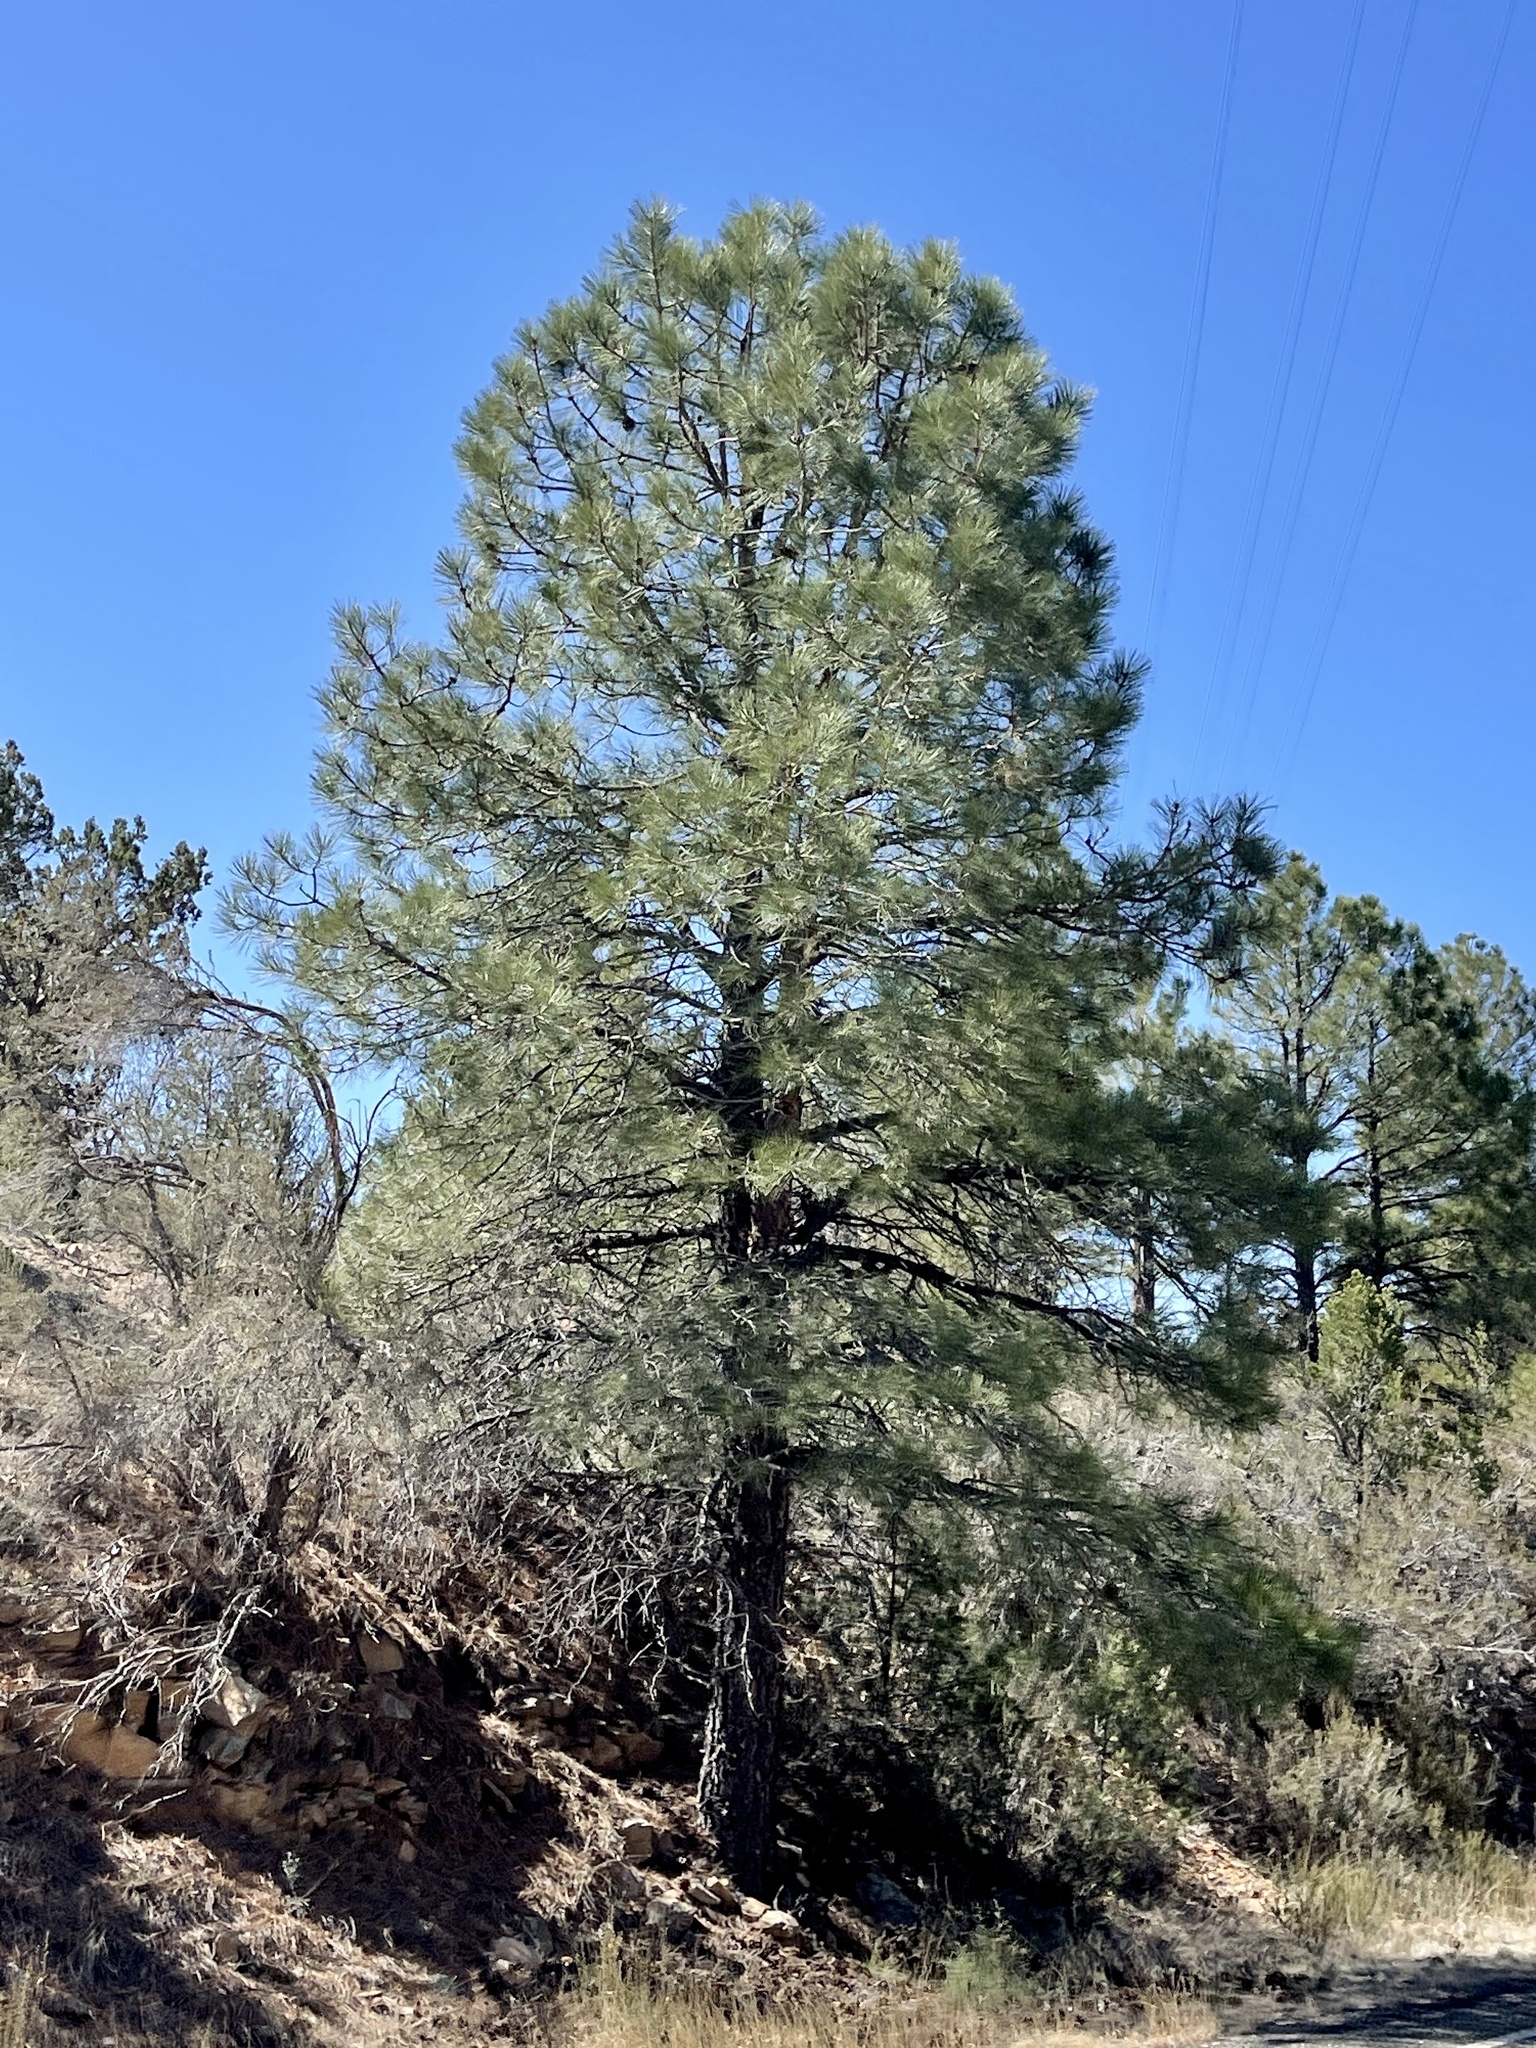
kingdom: Plantae
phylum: Tracheophyta
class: Pinopsida
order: Pinales
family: Pinaceae
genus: Pinus
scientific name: Pinus ponderosa
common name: Western yellow-pine
